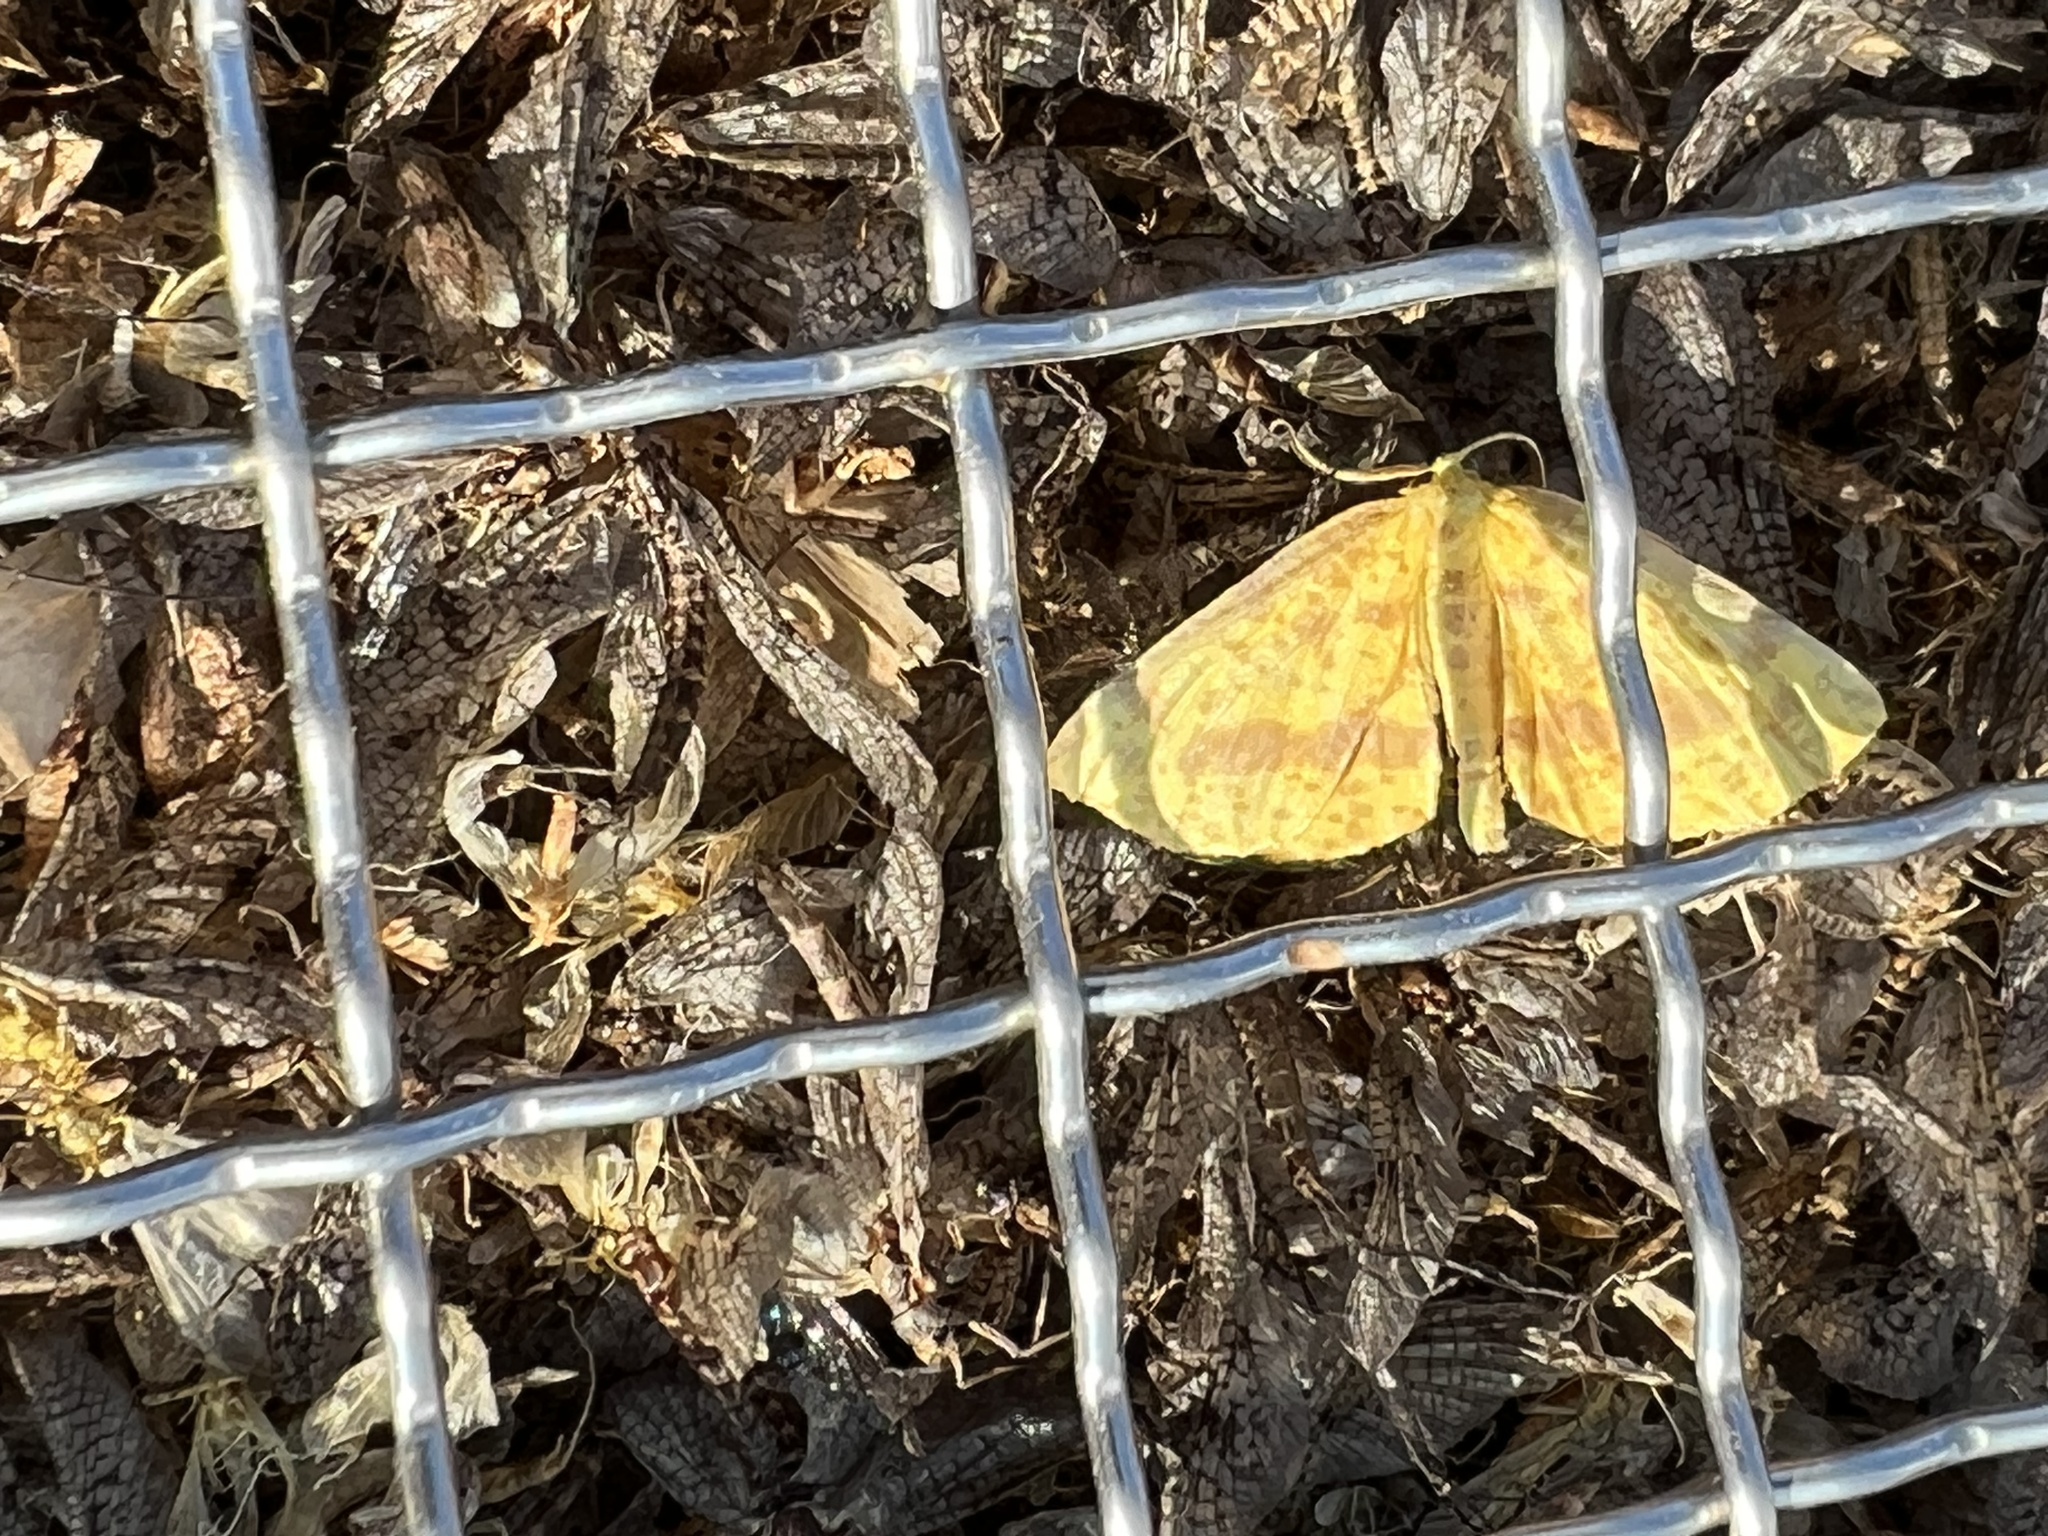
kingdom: Animalia
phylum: Arthropoda
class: Insecta
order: Lepidoptera
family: Geometridae
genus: Xanthotype
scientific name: Xanthotype
